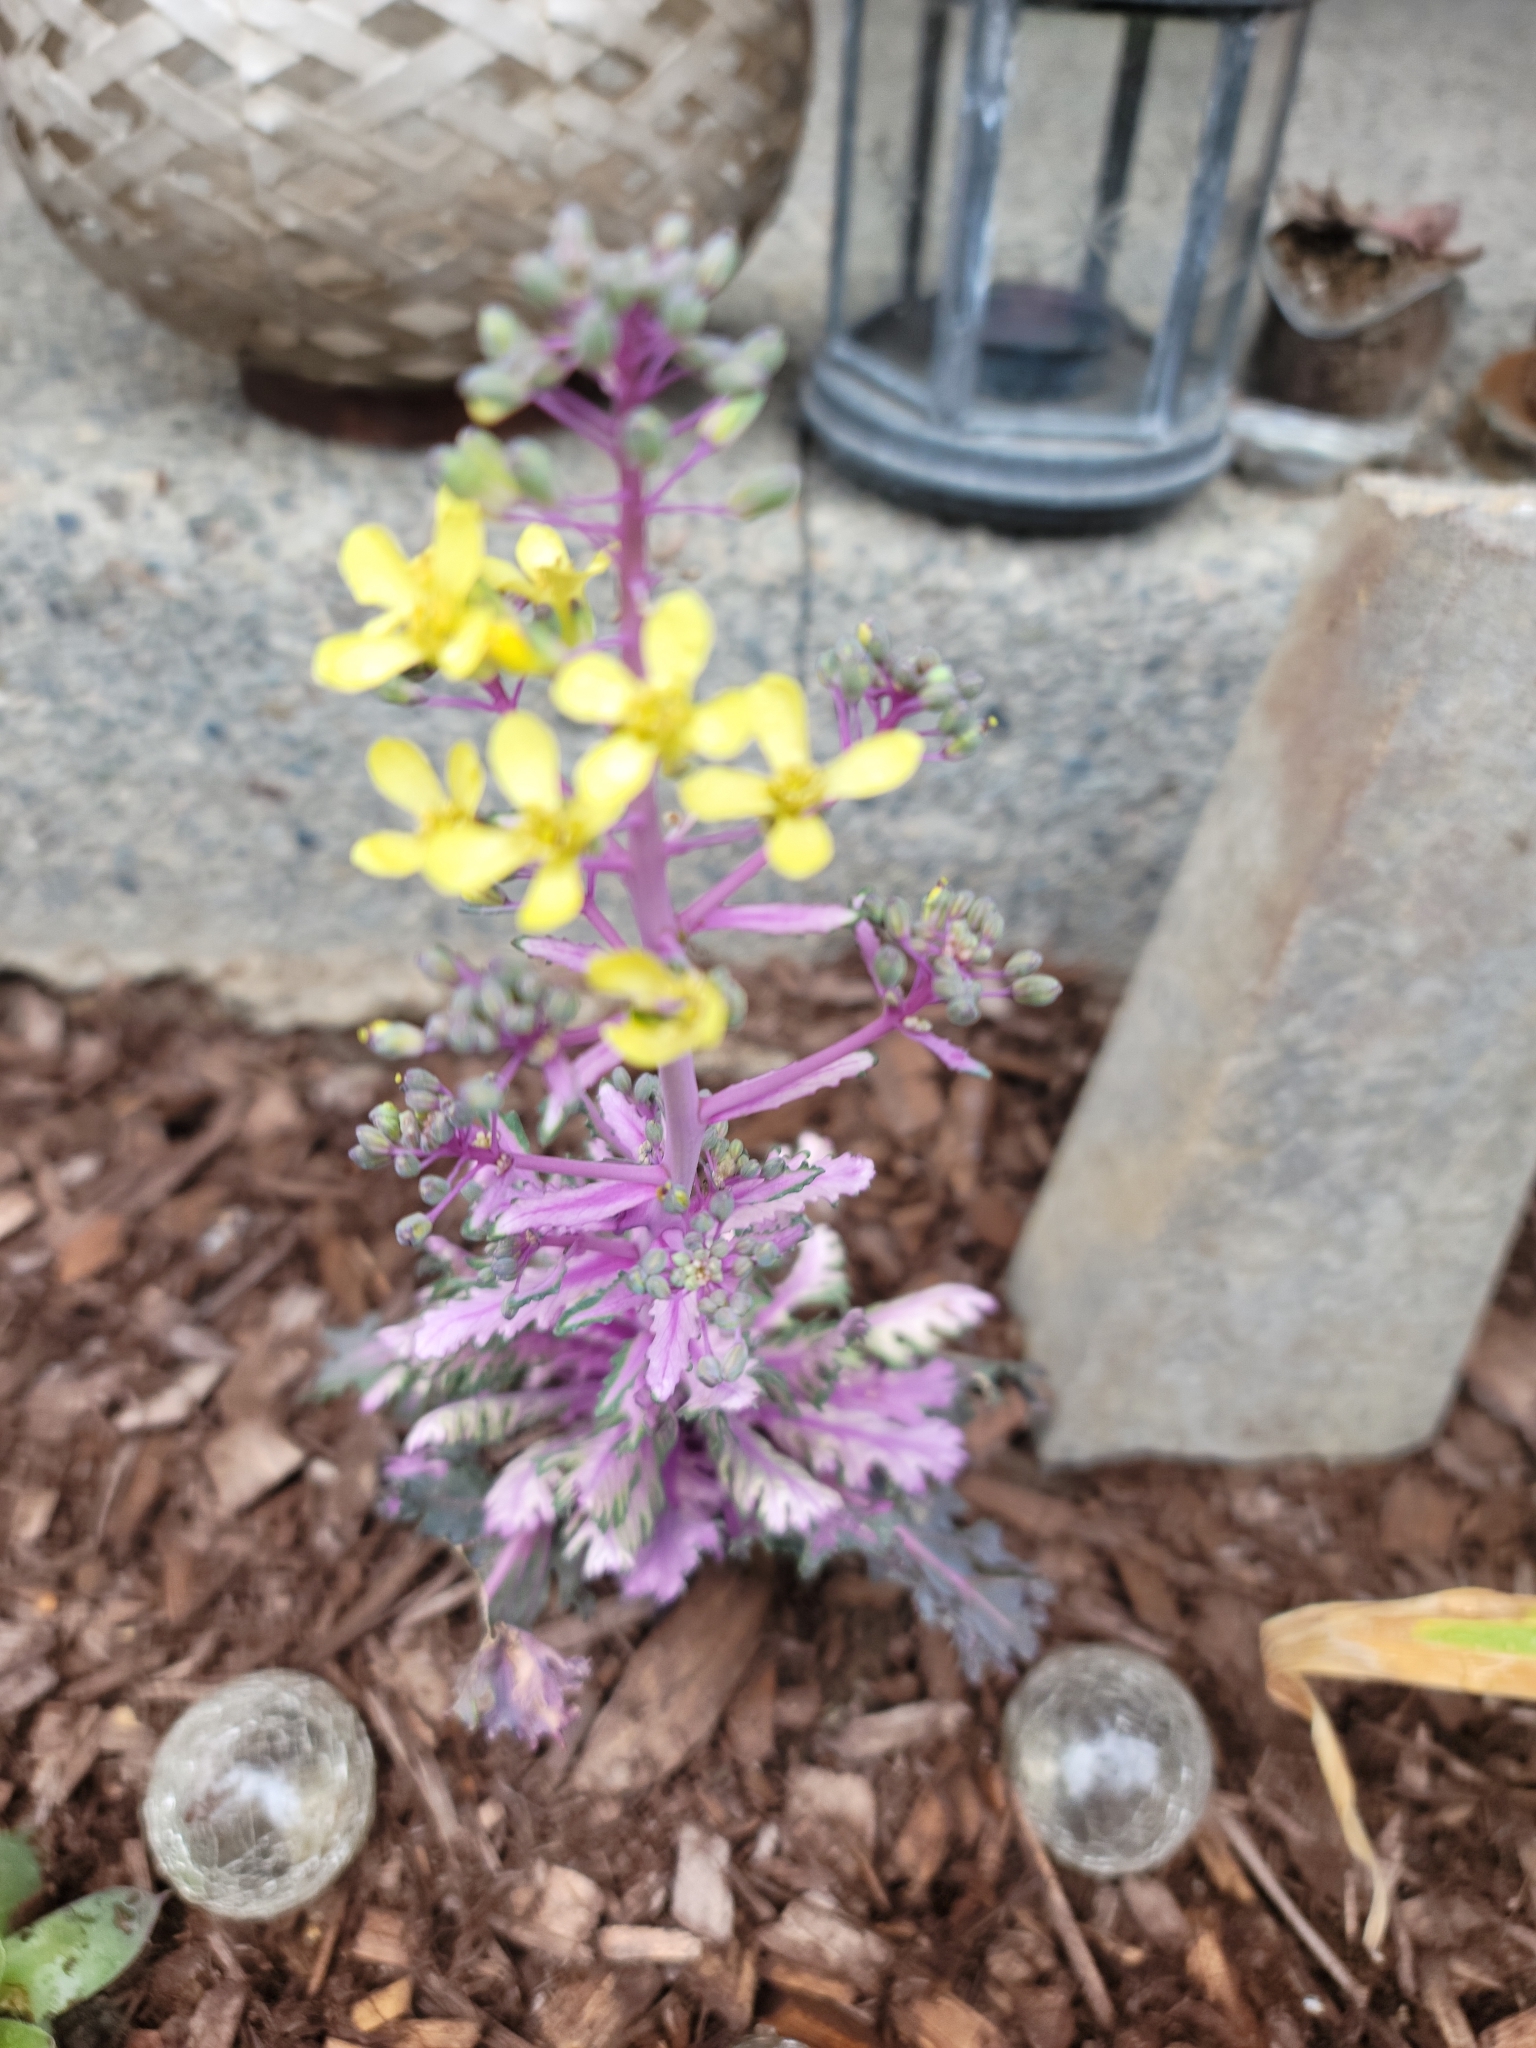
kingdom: Plantae
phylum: Tracheophyta
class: Magnoliopsida
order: Brassicales
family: Brassicaceae
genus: Brassica
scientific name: Brassica oleracea
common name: Cabbage
